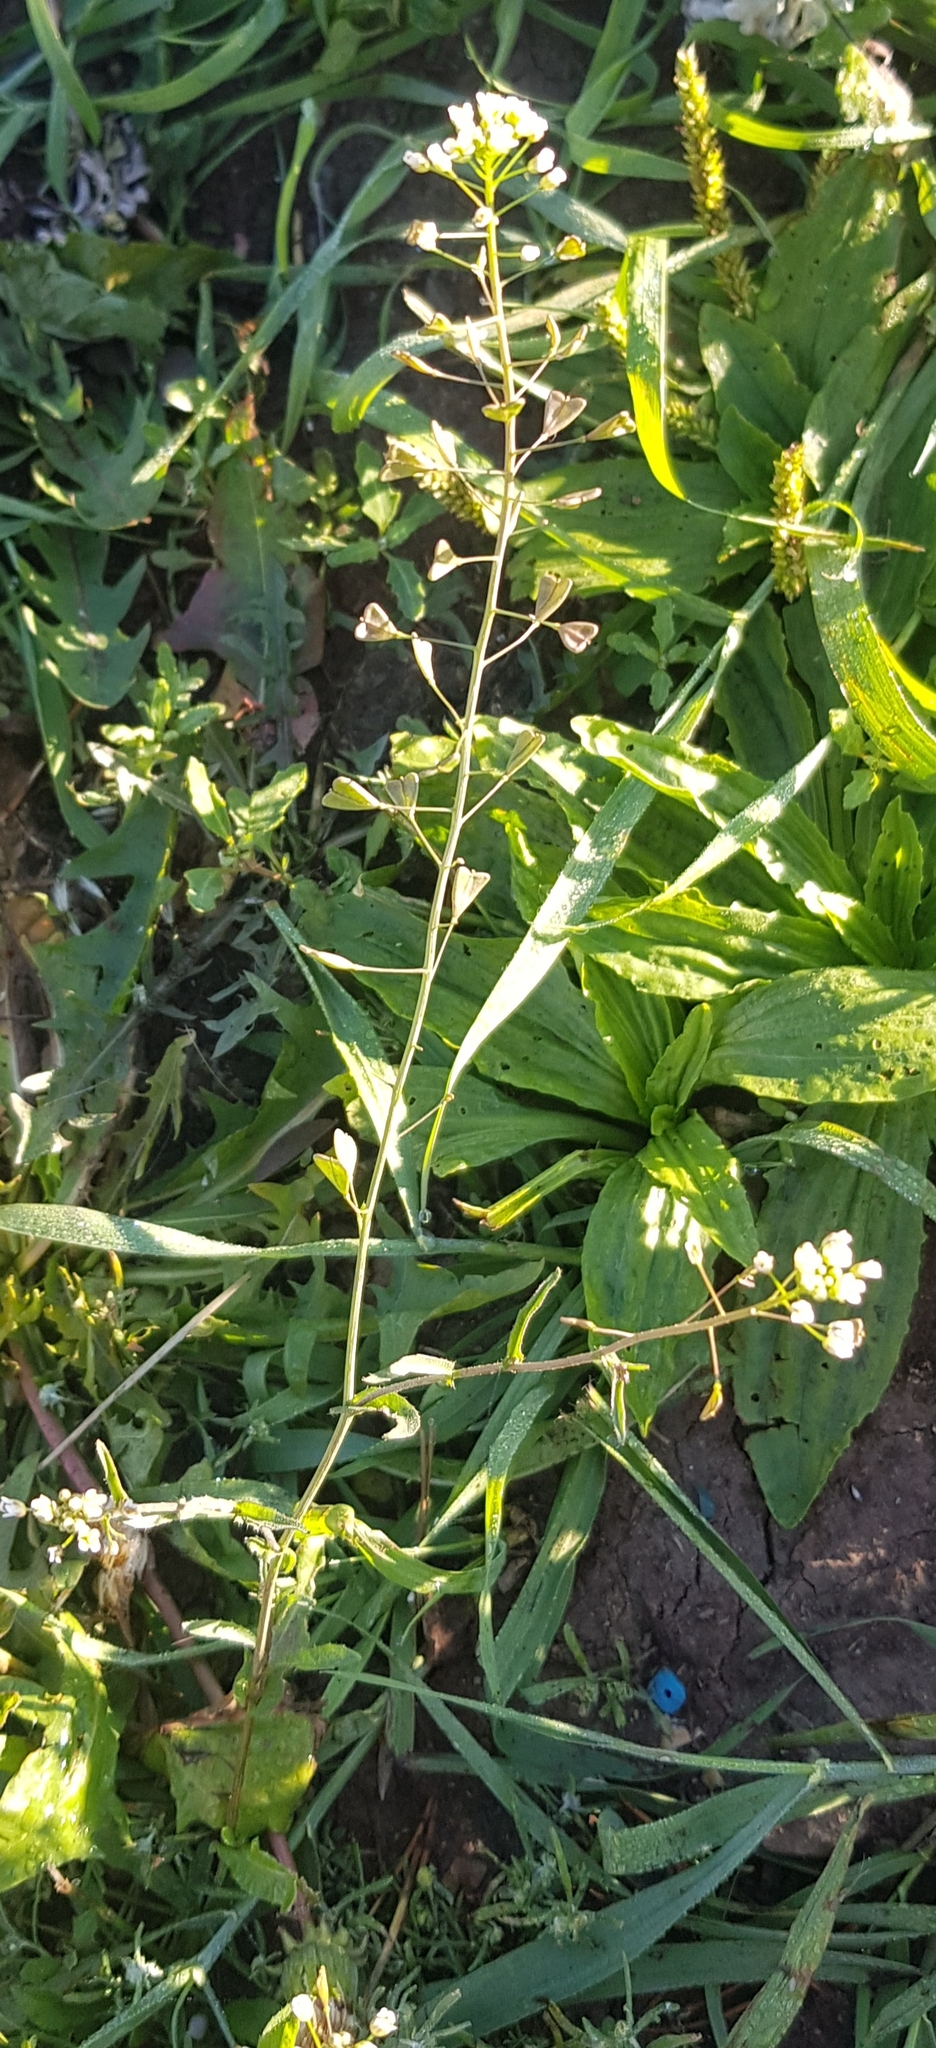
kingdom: Plantae
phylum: Tracheophyta
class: Magnoliopsida
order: Brassicales
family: Brassicaceae
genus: Capsella
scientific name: Capsella bursa-pastoris
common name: Shepherd's purse
